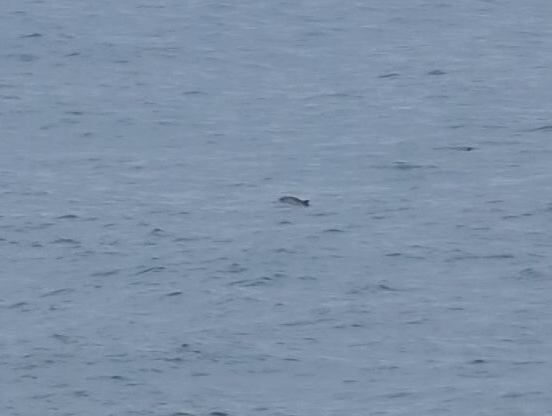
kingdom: Animalia
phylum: Chordata
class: Mammalia
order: Cetacea
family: Phocoenidae
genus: Phocoena
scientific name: Phocoena phocoena
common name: Harbor porpoise
